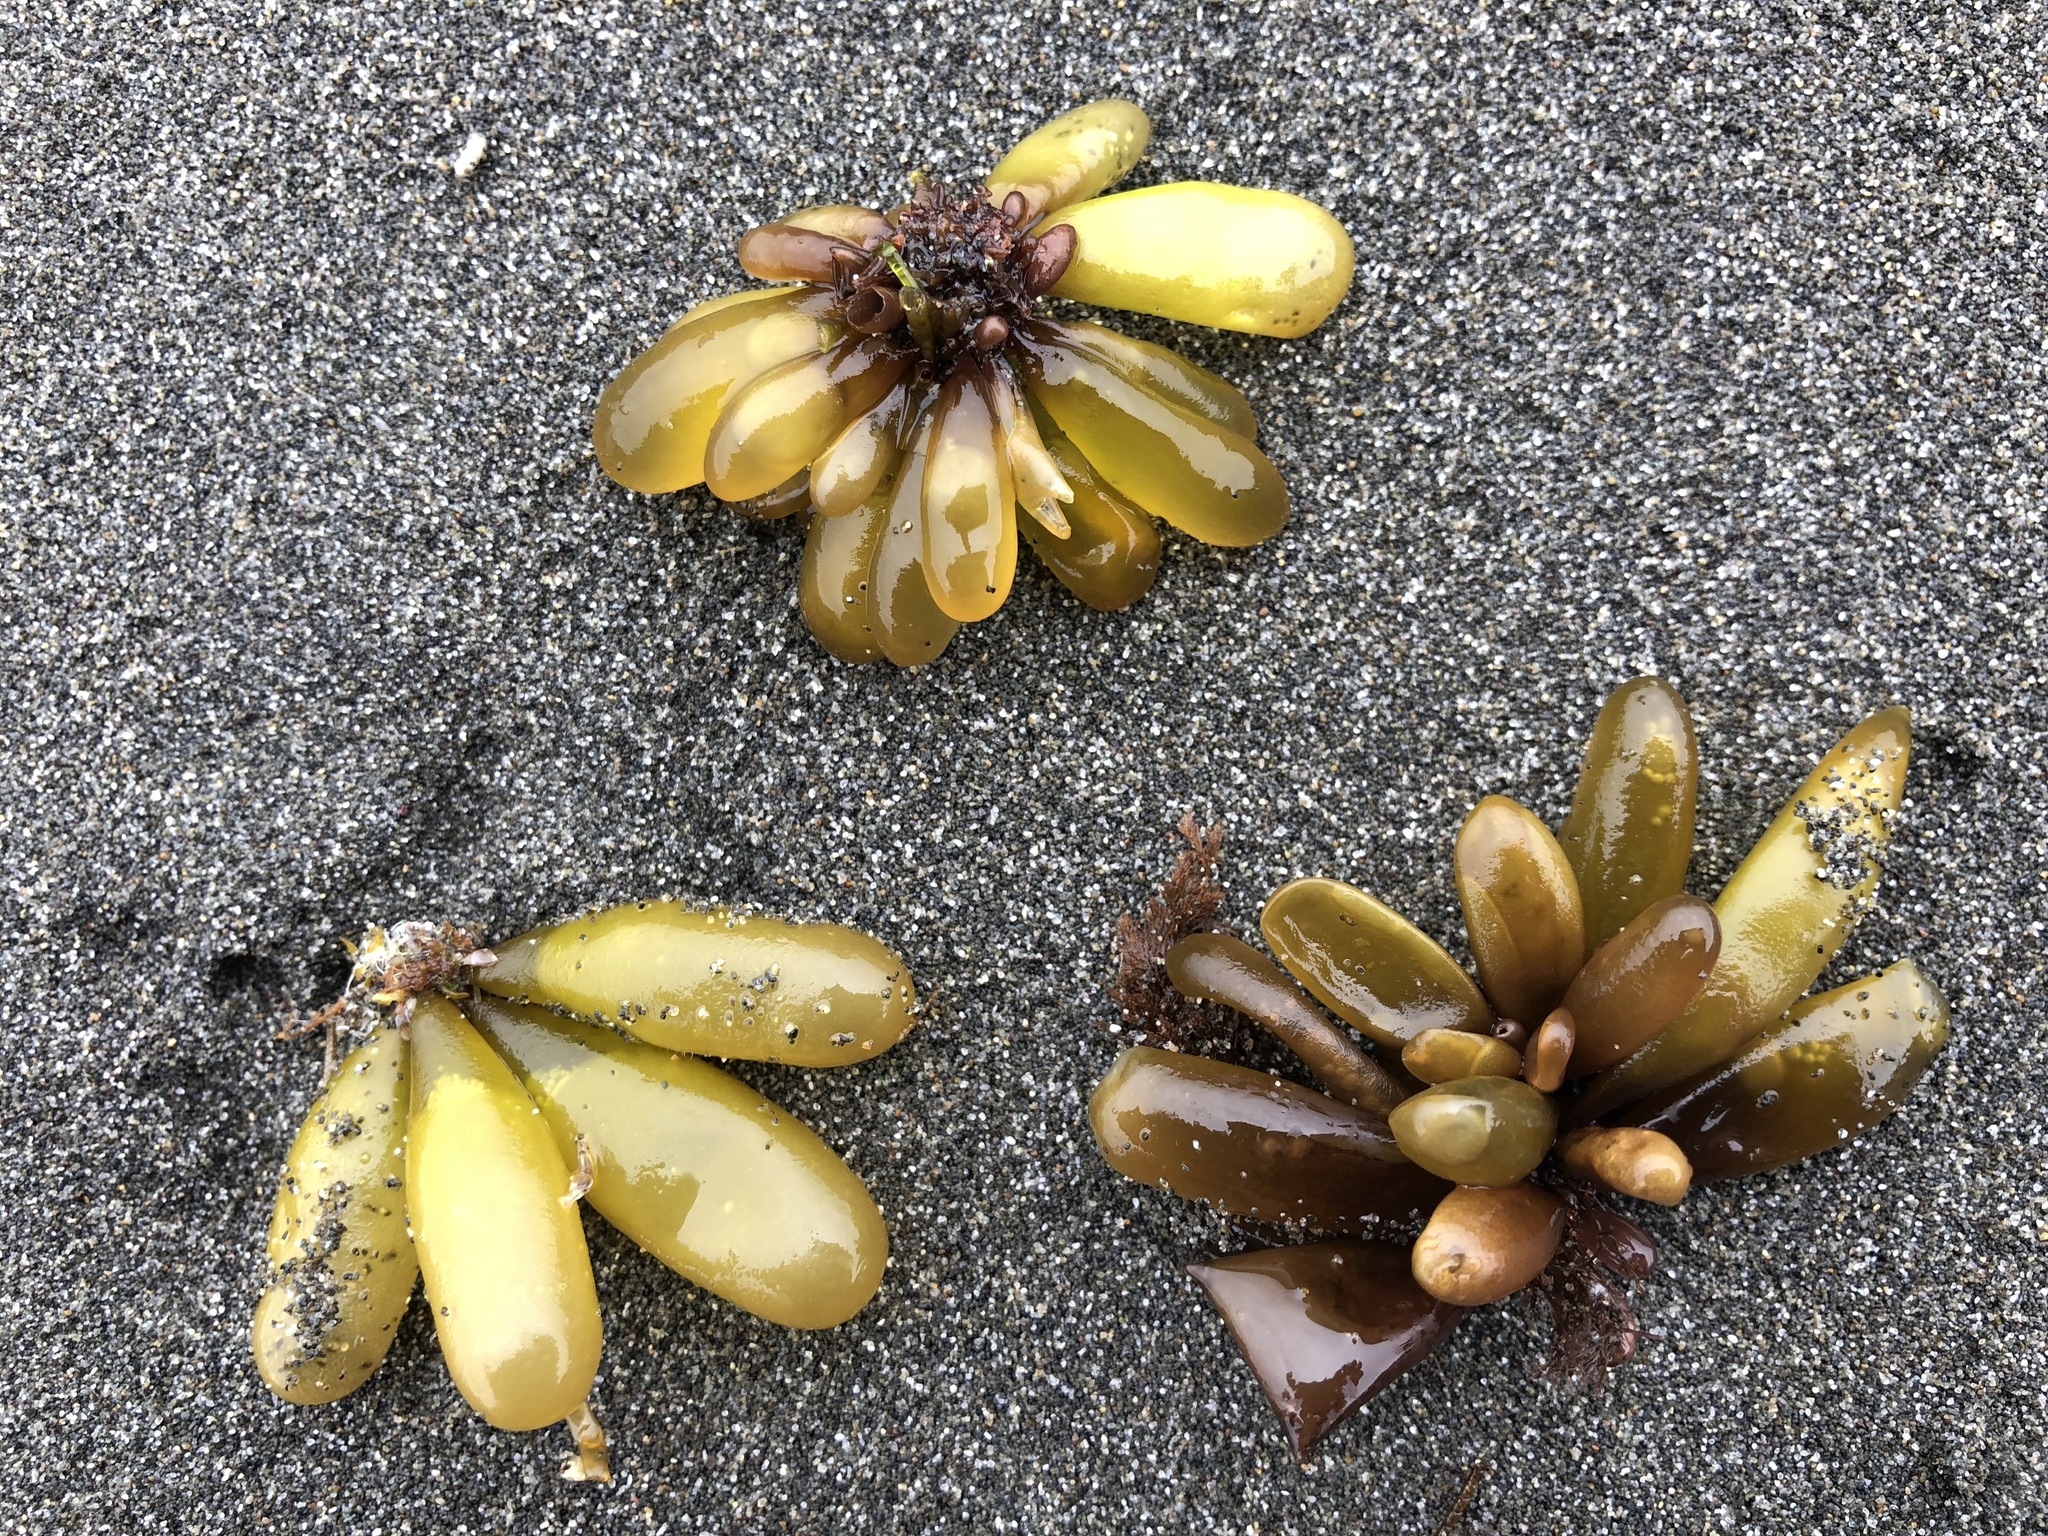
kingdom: Plantae
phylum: Rhodophyta
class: Florideophyceae
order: Palmariales
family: Palmariaceae
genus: Halosaccion
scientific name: Halosaccion glandiforme
